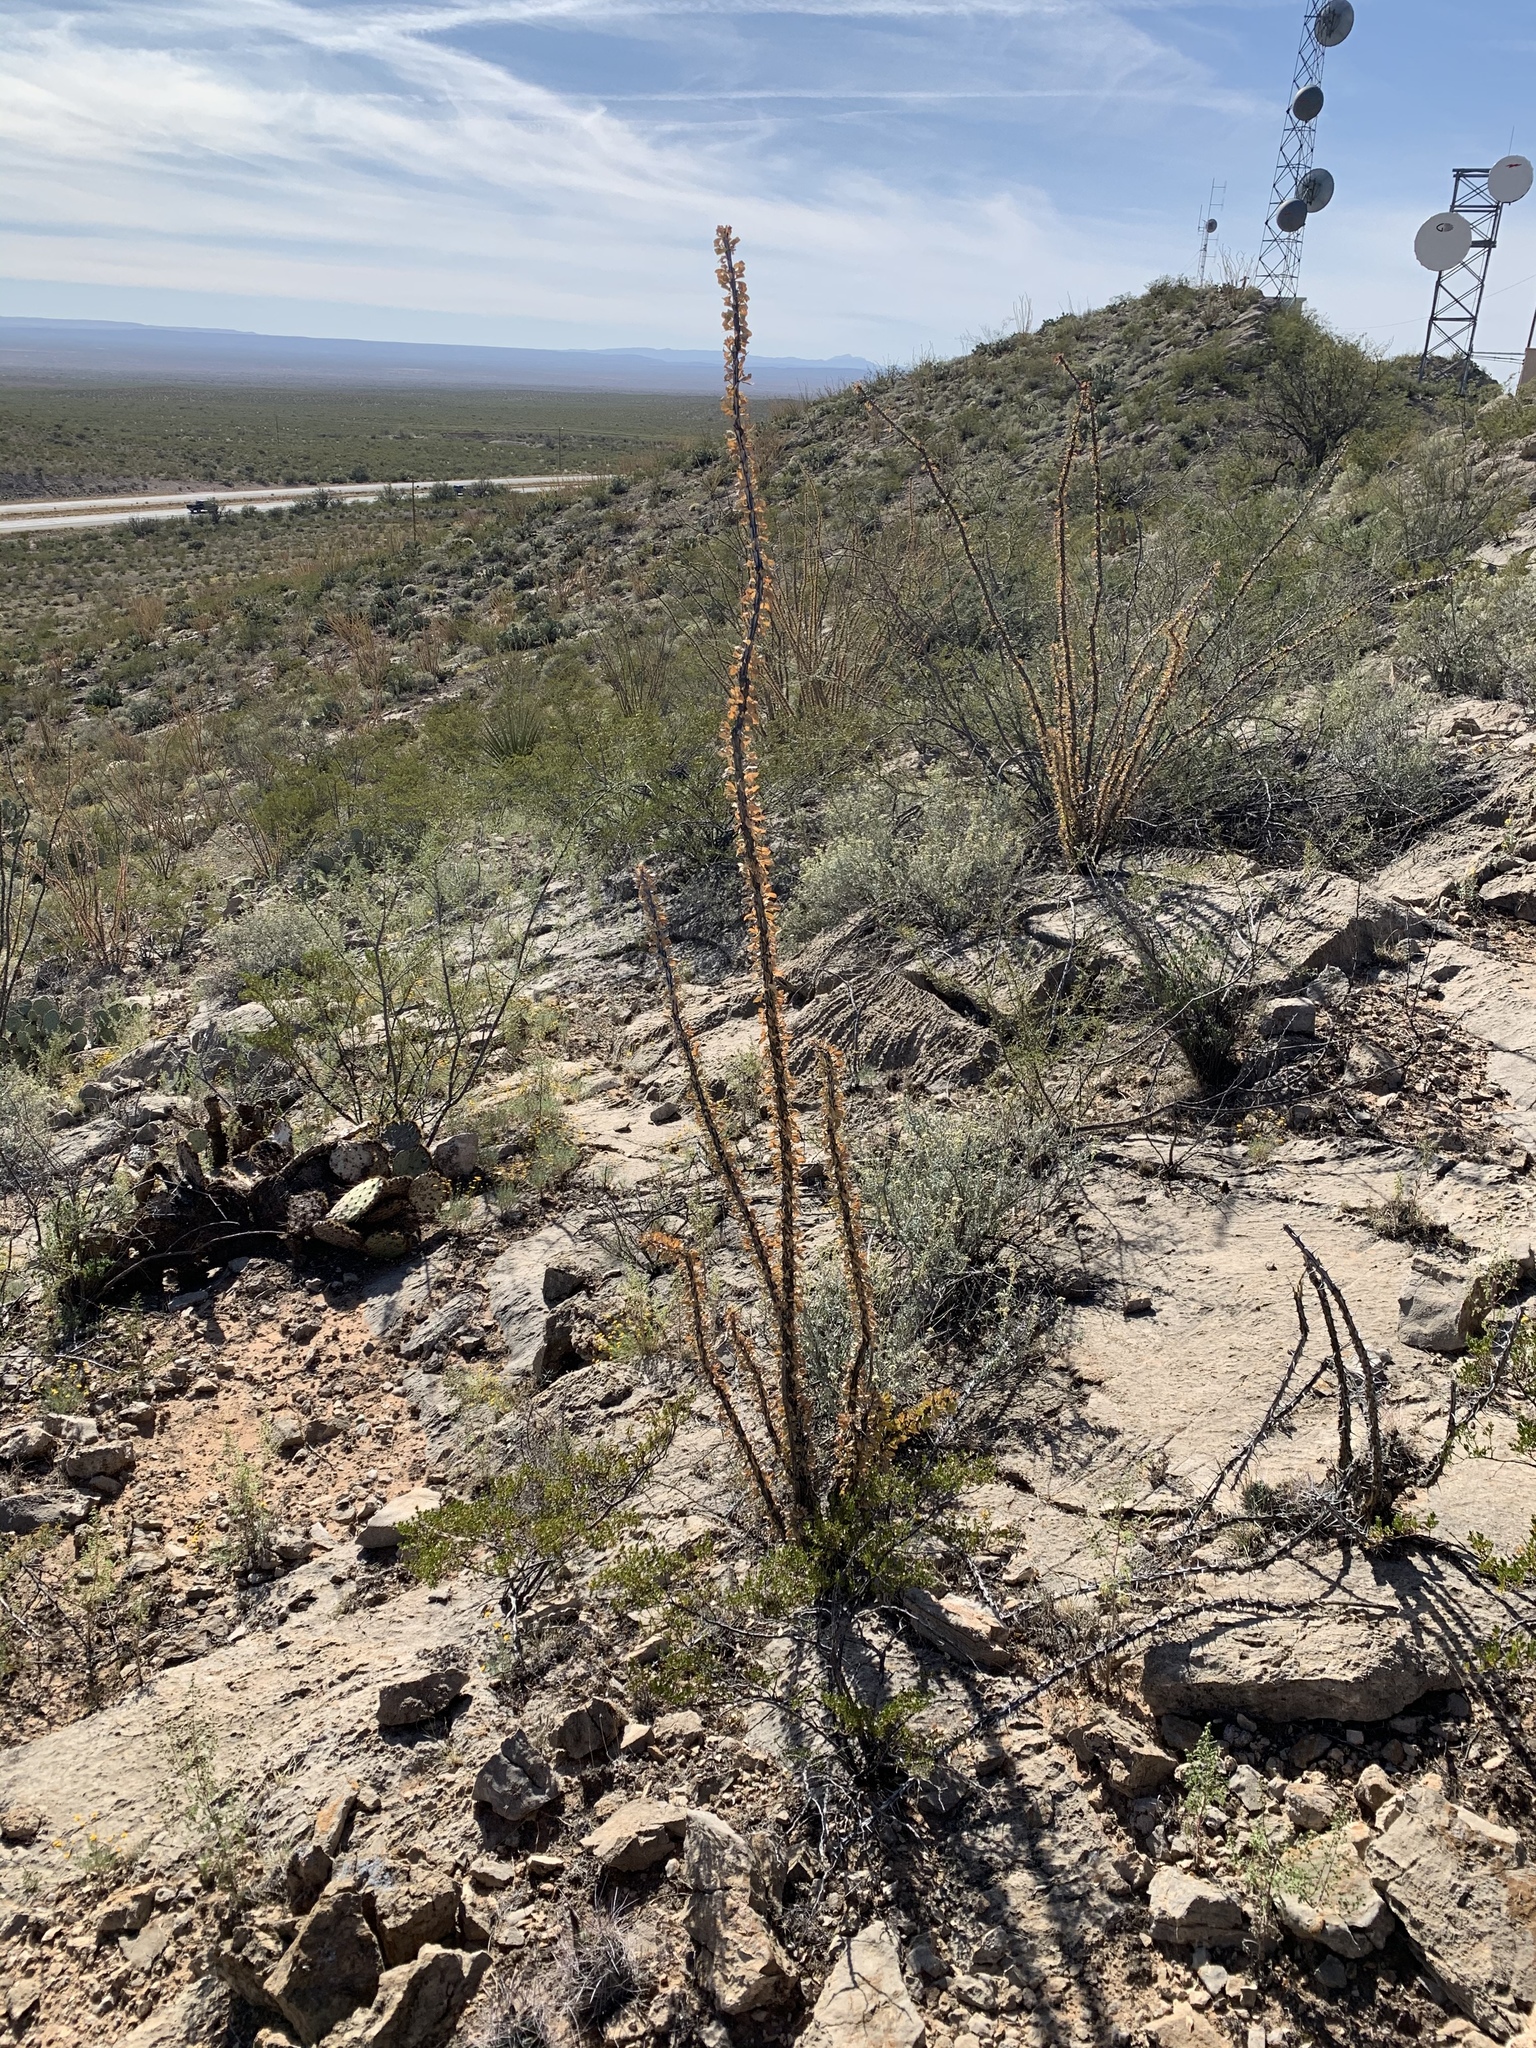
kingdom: Plantae
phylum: Tracheophyta
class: Magnoliopsida
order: Ericales
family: Fouquieriaceae
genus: Fouquieria
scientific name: Fouquieria splendens
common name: Vine-cactus
